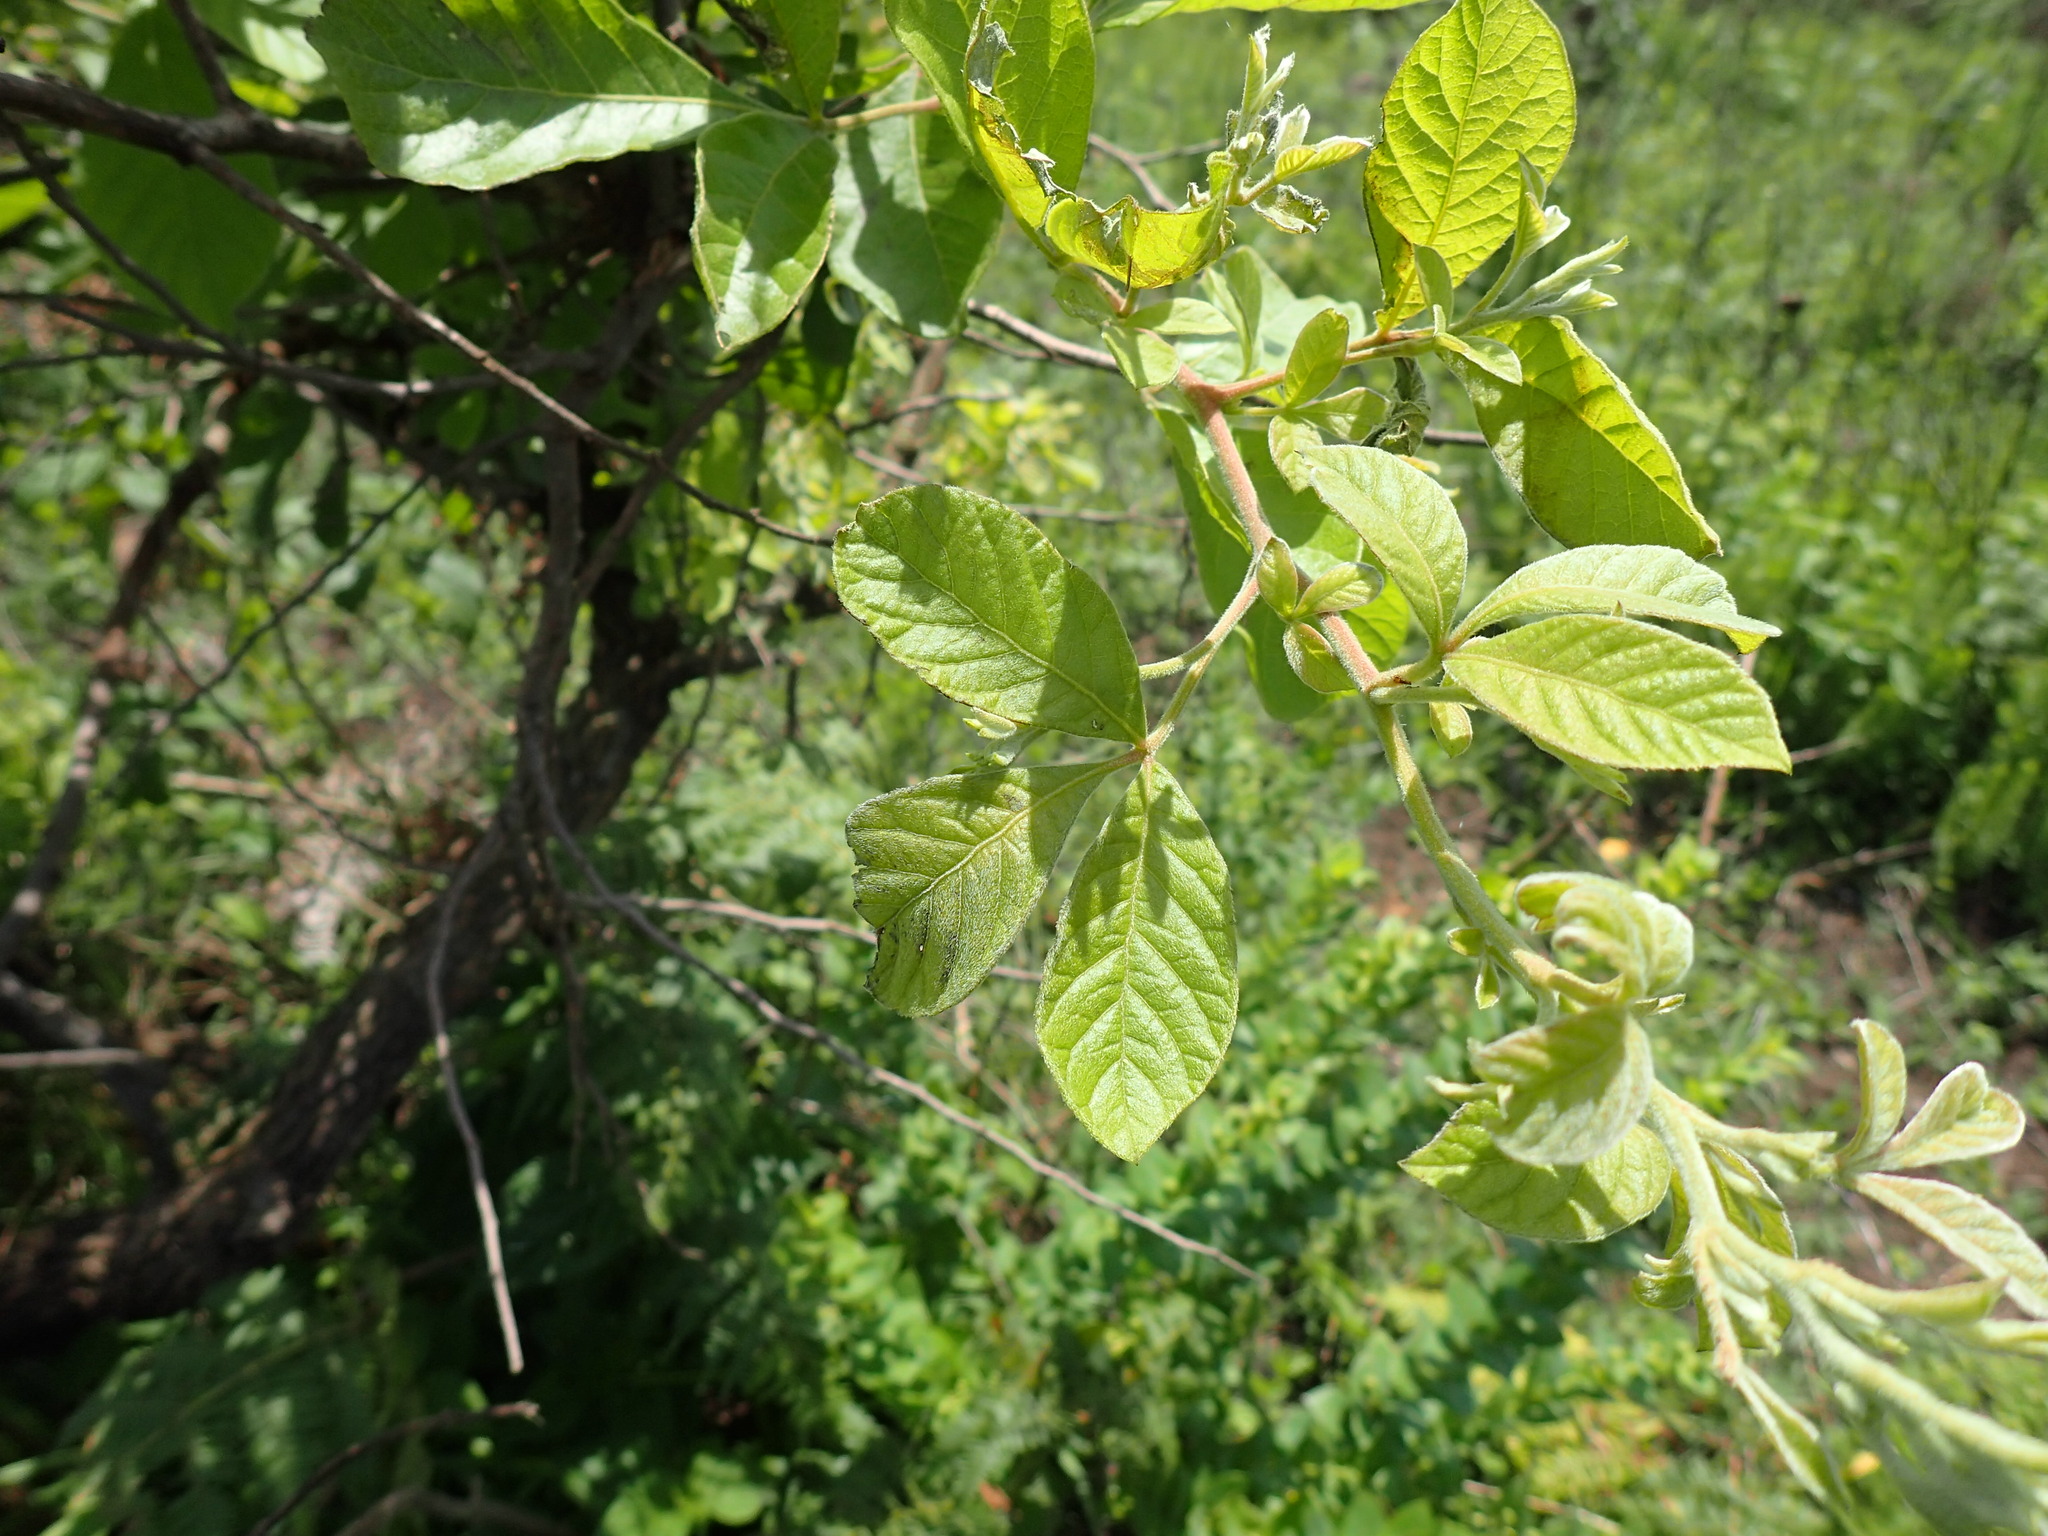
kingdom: Plantae
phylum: Tracheophyta
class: Magnoliopsida
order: Sapindales
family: Anacardiaceae
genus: Searsia
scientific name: Searsia rehmanniana
